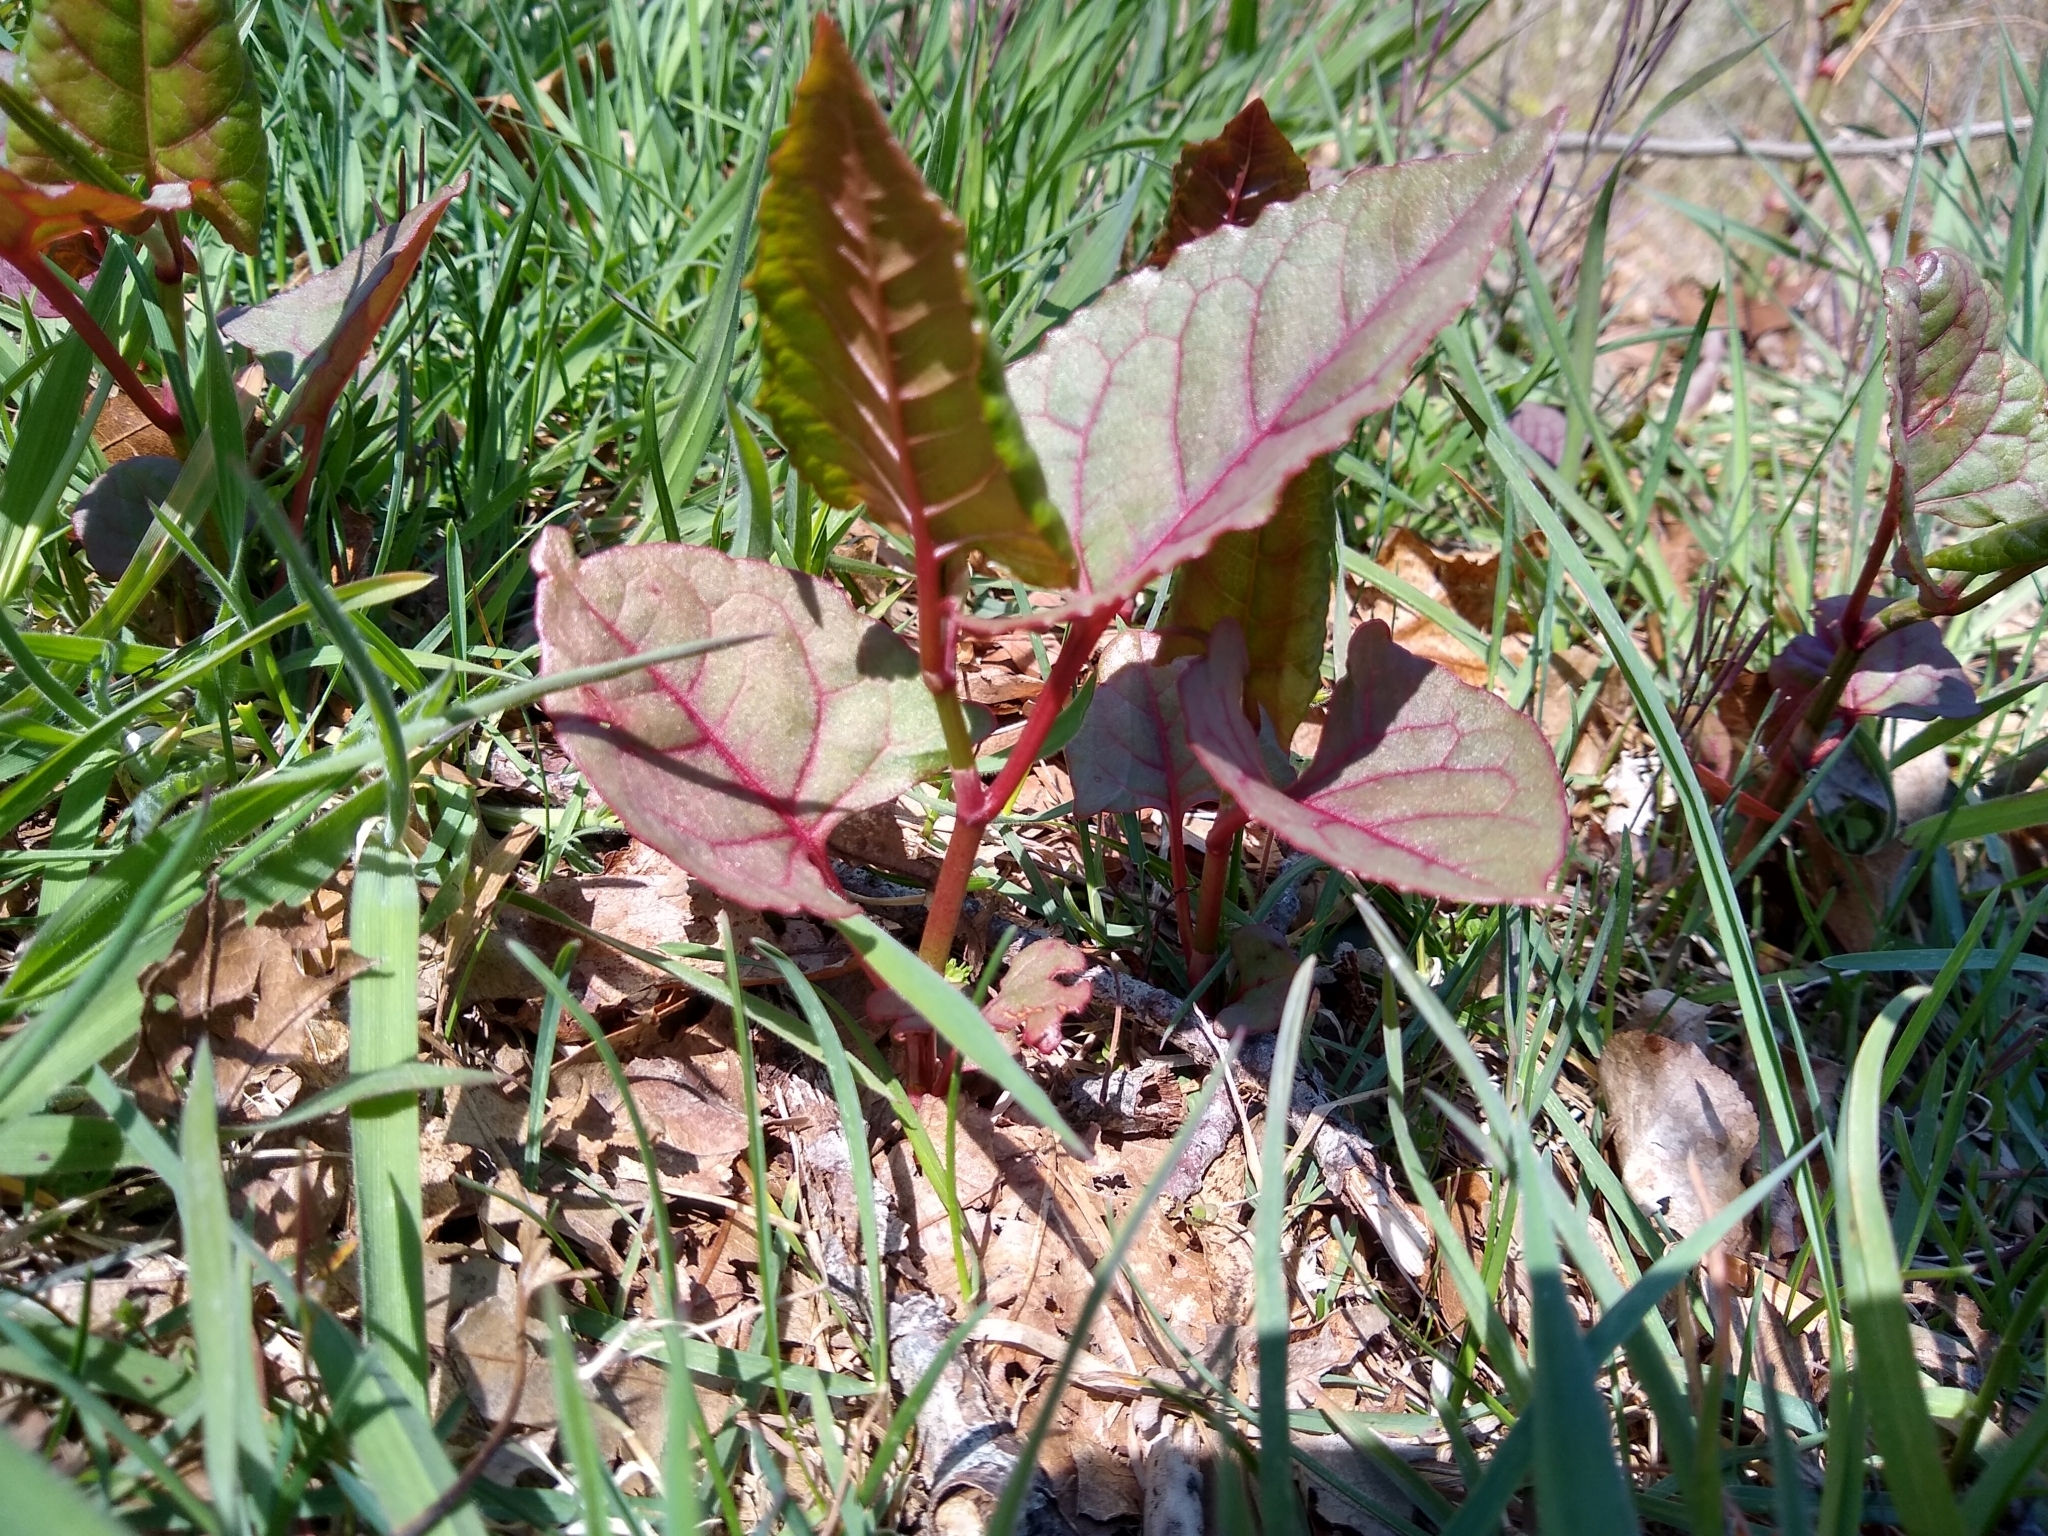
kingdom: Plantae
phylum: Tracheophyta
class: Magnoliopsida
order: Caryophyllales
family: Polygonaceae
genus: Reynoutria
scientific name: Reynoutria japonica
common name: Japanese knotweed
